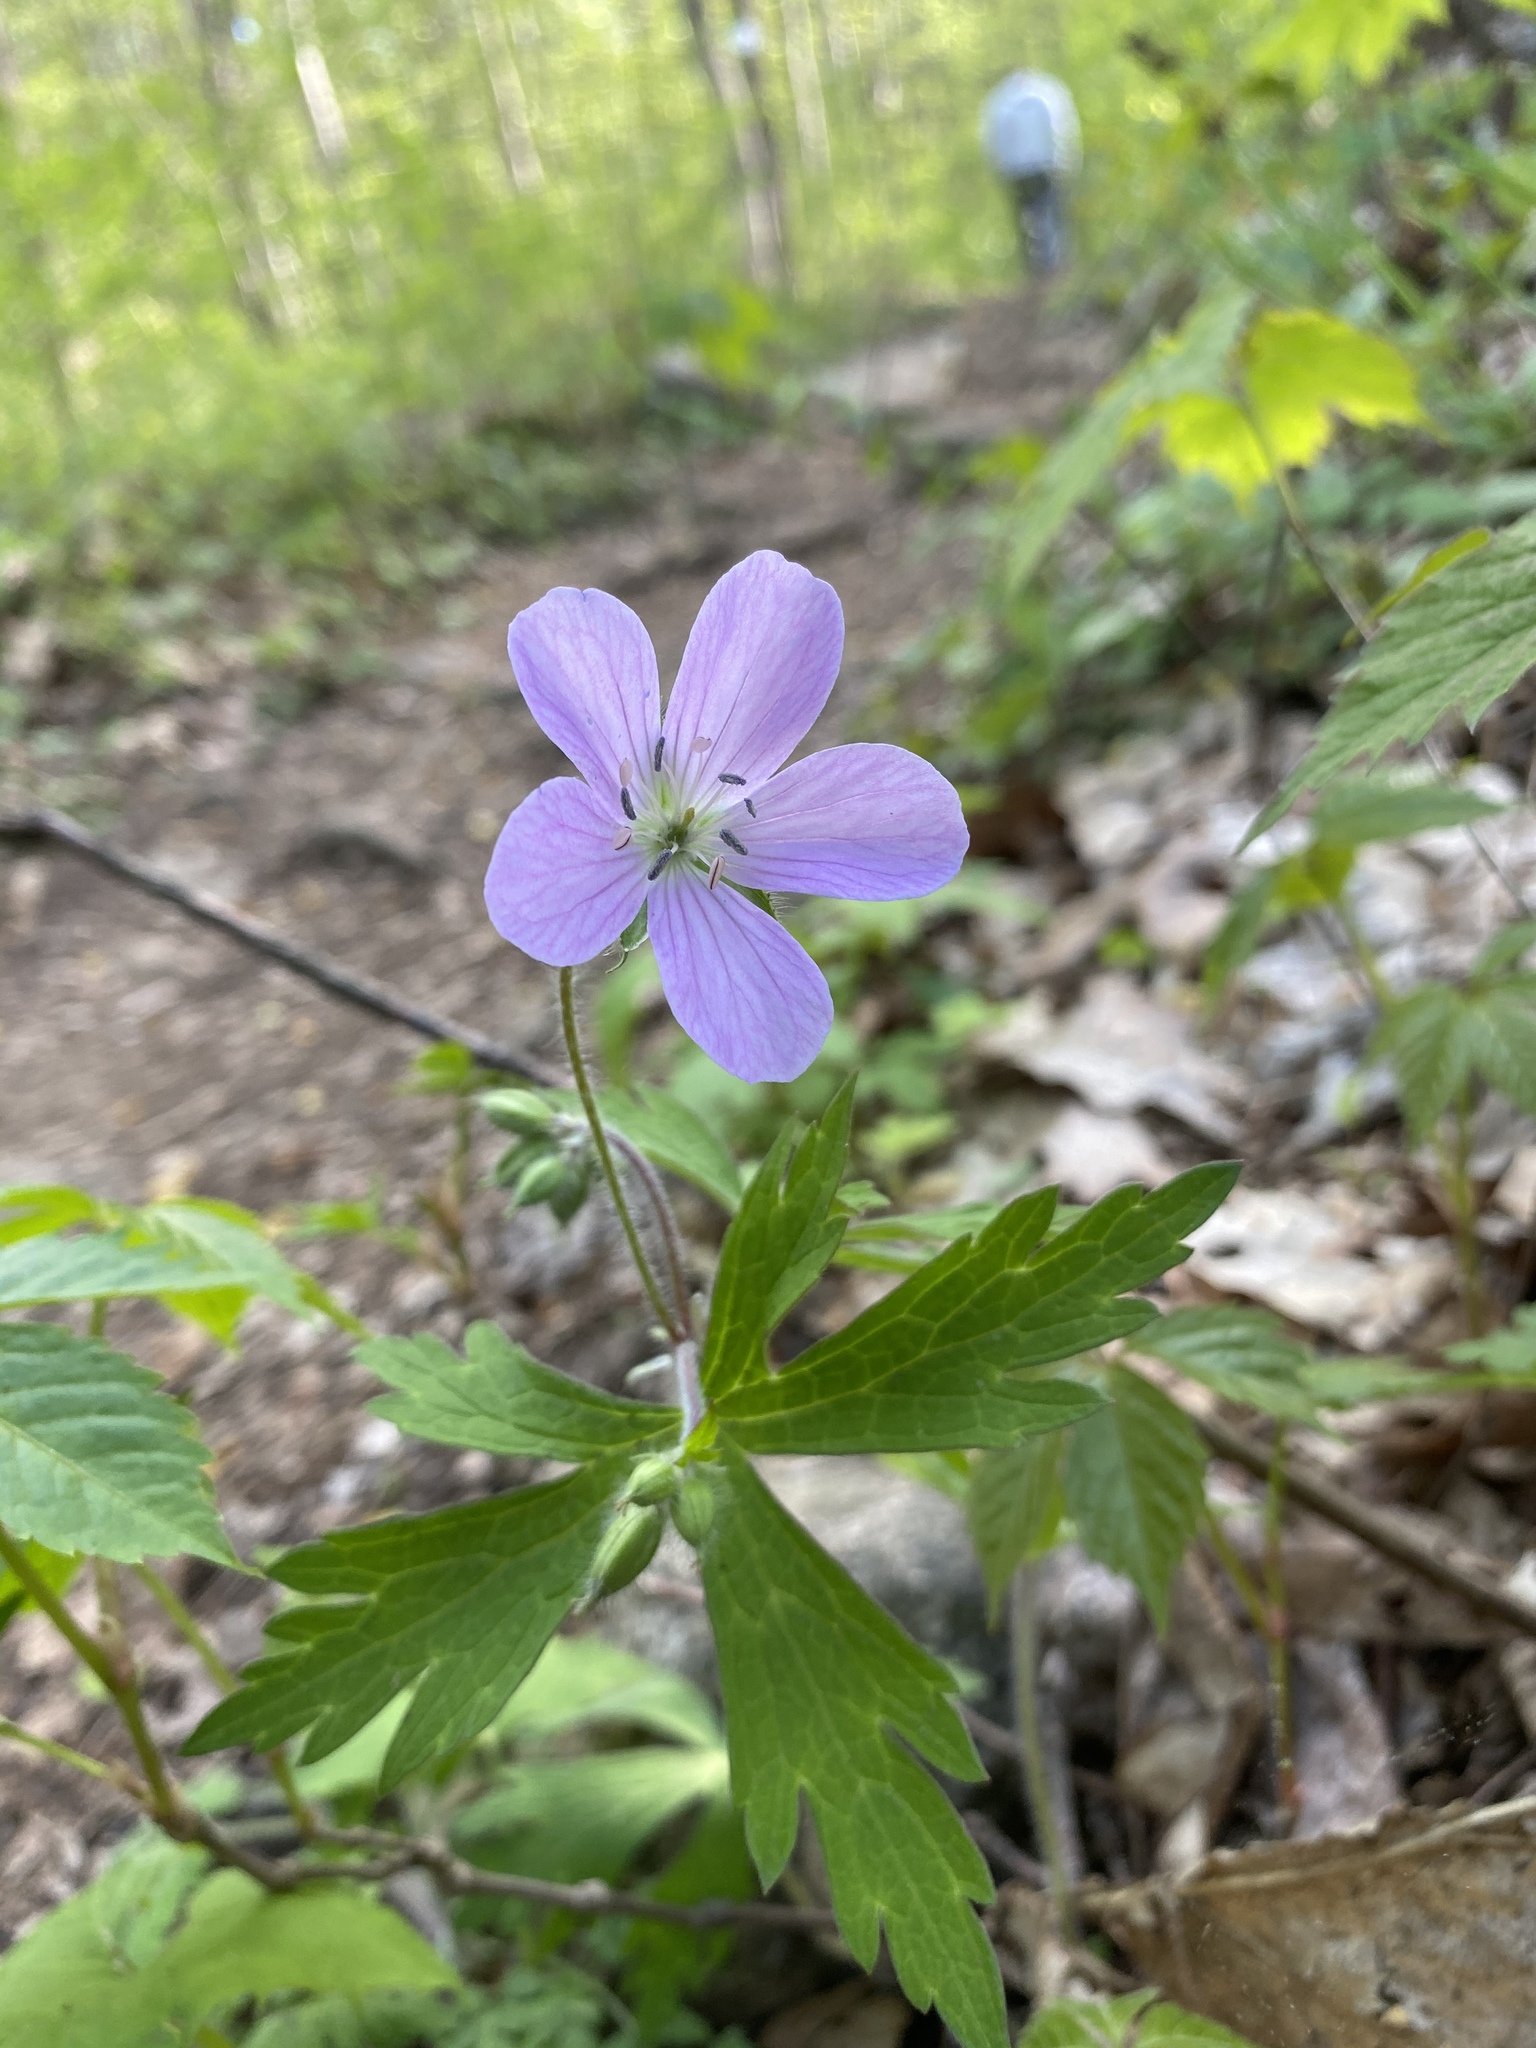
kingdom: Plantae
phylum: Tracheophyta
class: Magnoliopsida
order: Geraniales
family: Geraniaceae
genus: Geranium
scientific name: Geranium maculatum
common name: Spotted geranium
